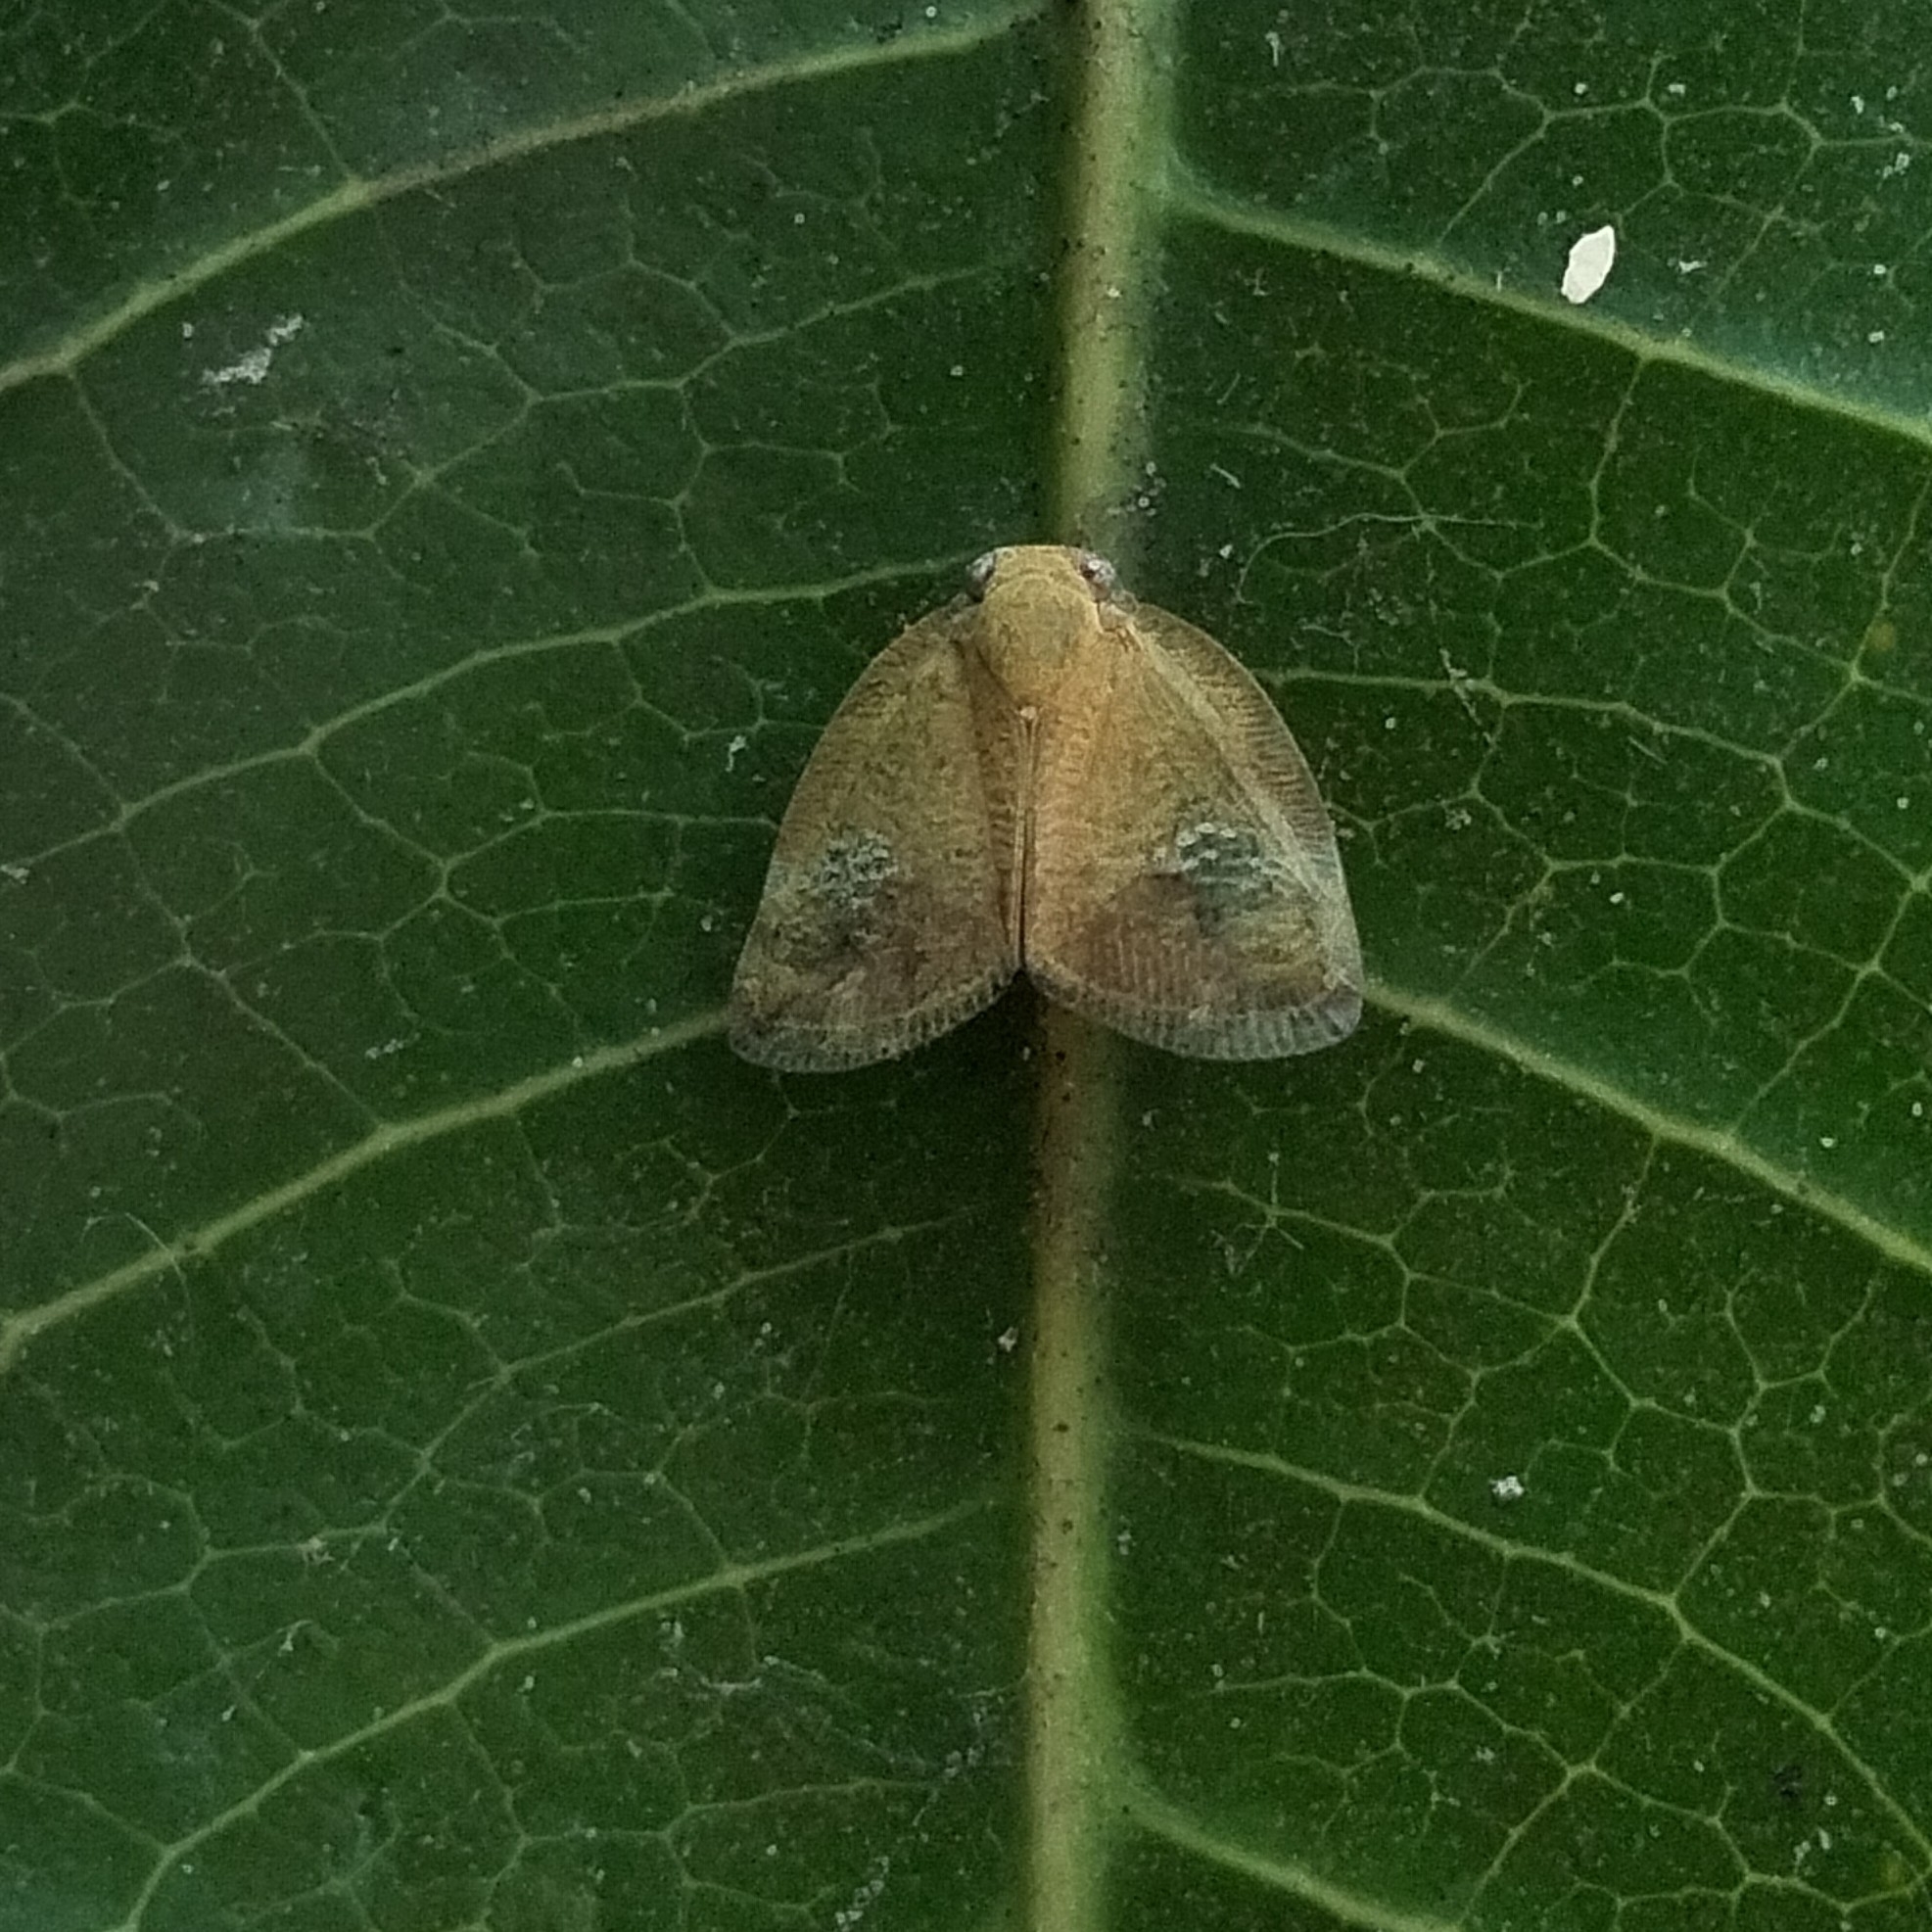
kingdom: Animalia
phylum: Arthropoda
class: Insecta
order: Hemiptera
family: Ricaniidae
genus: Ricania
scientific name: Ricania fenestrata
